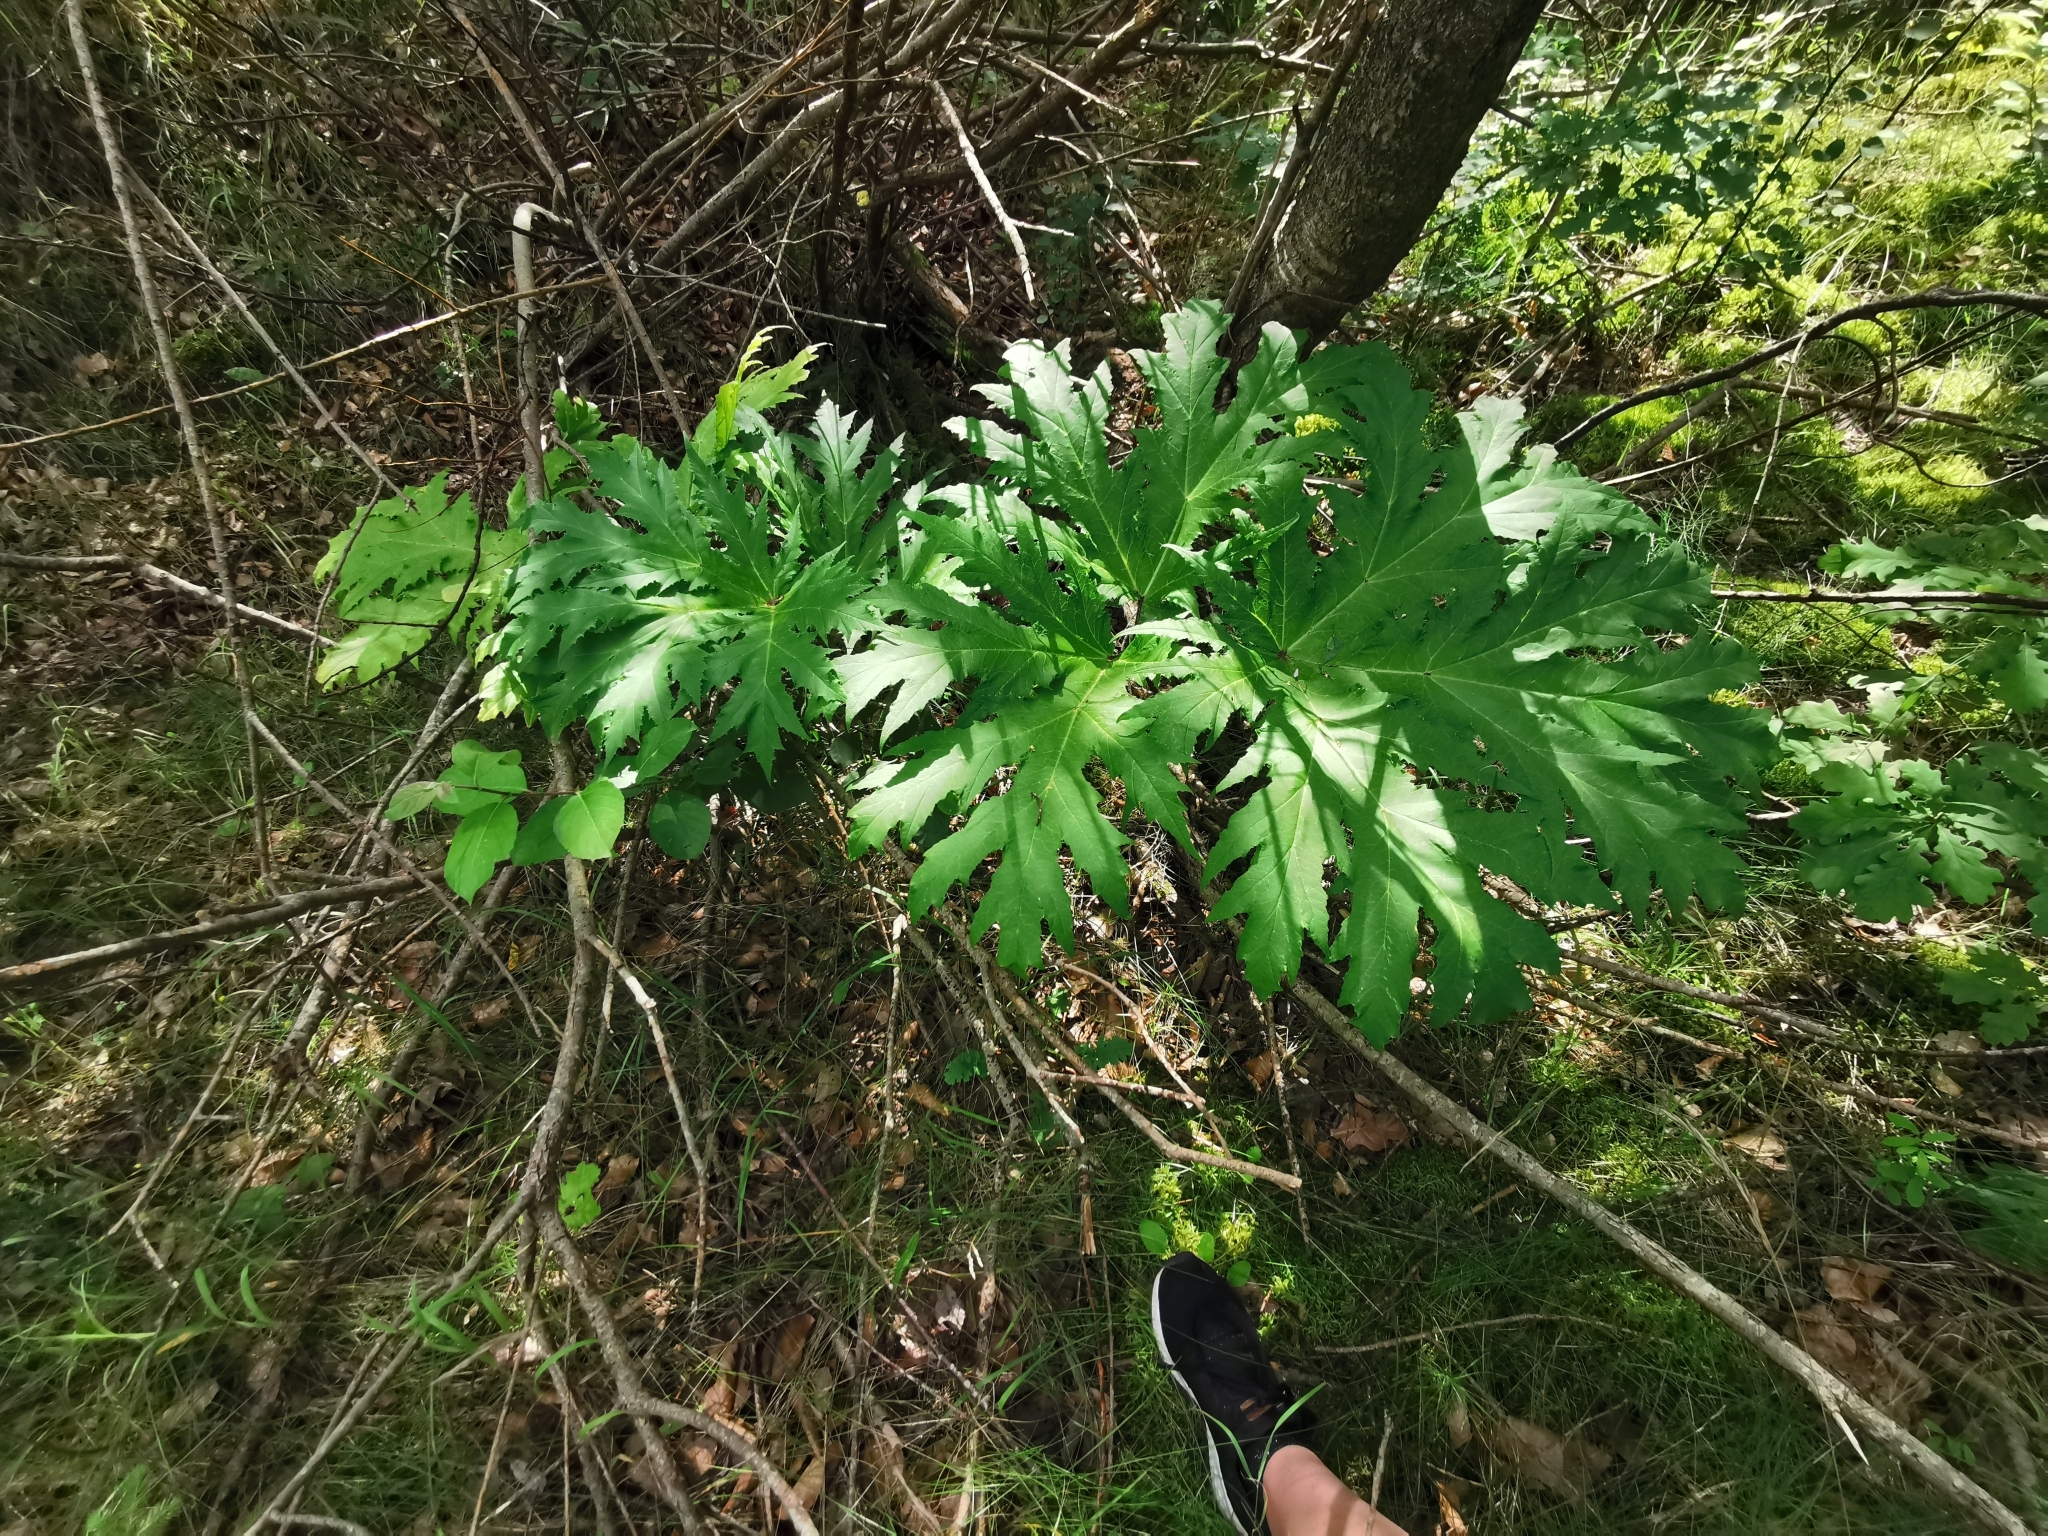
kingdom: Plantae
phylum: Tracheophyta
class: Magnoliopsida
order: Apiales
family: Apiaceae
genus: Heracleum
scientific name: Heracleum mantegazzianum
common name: Giant hogweed
